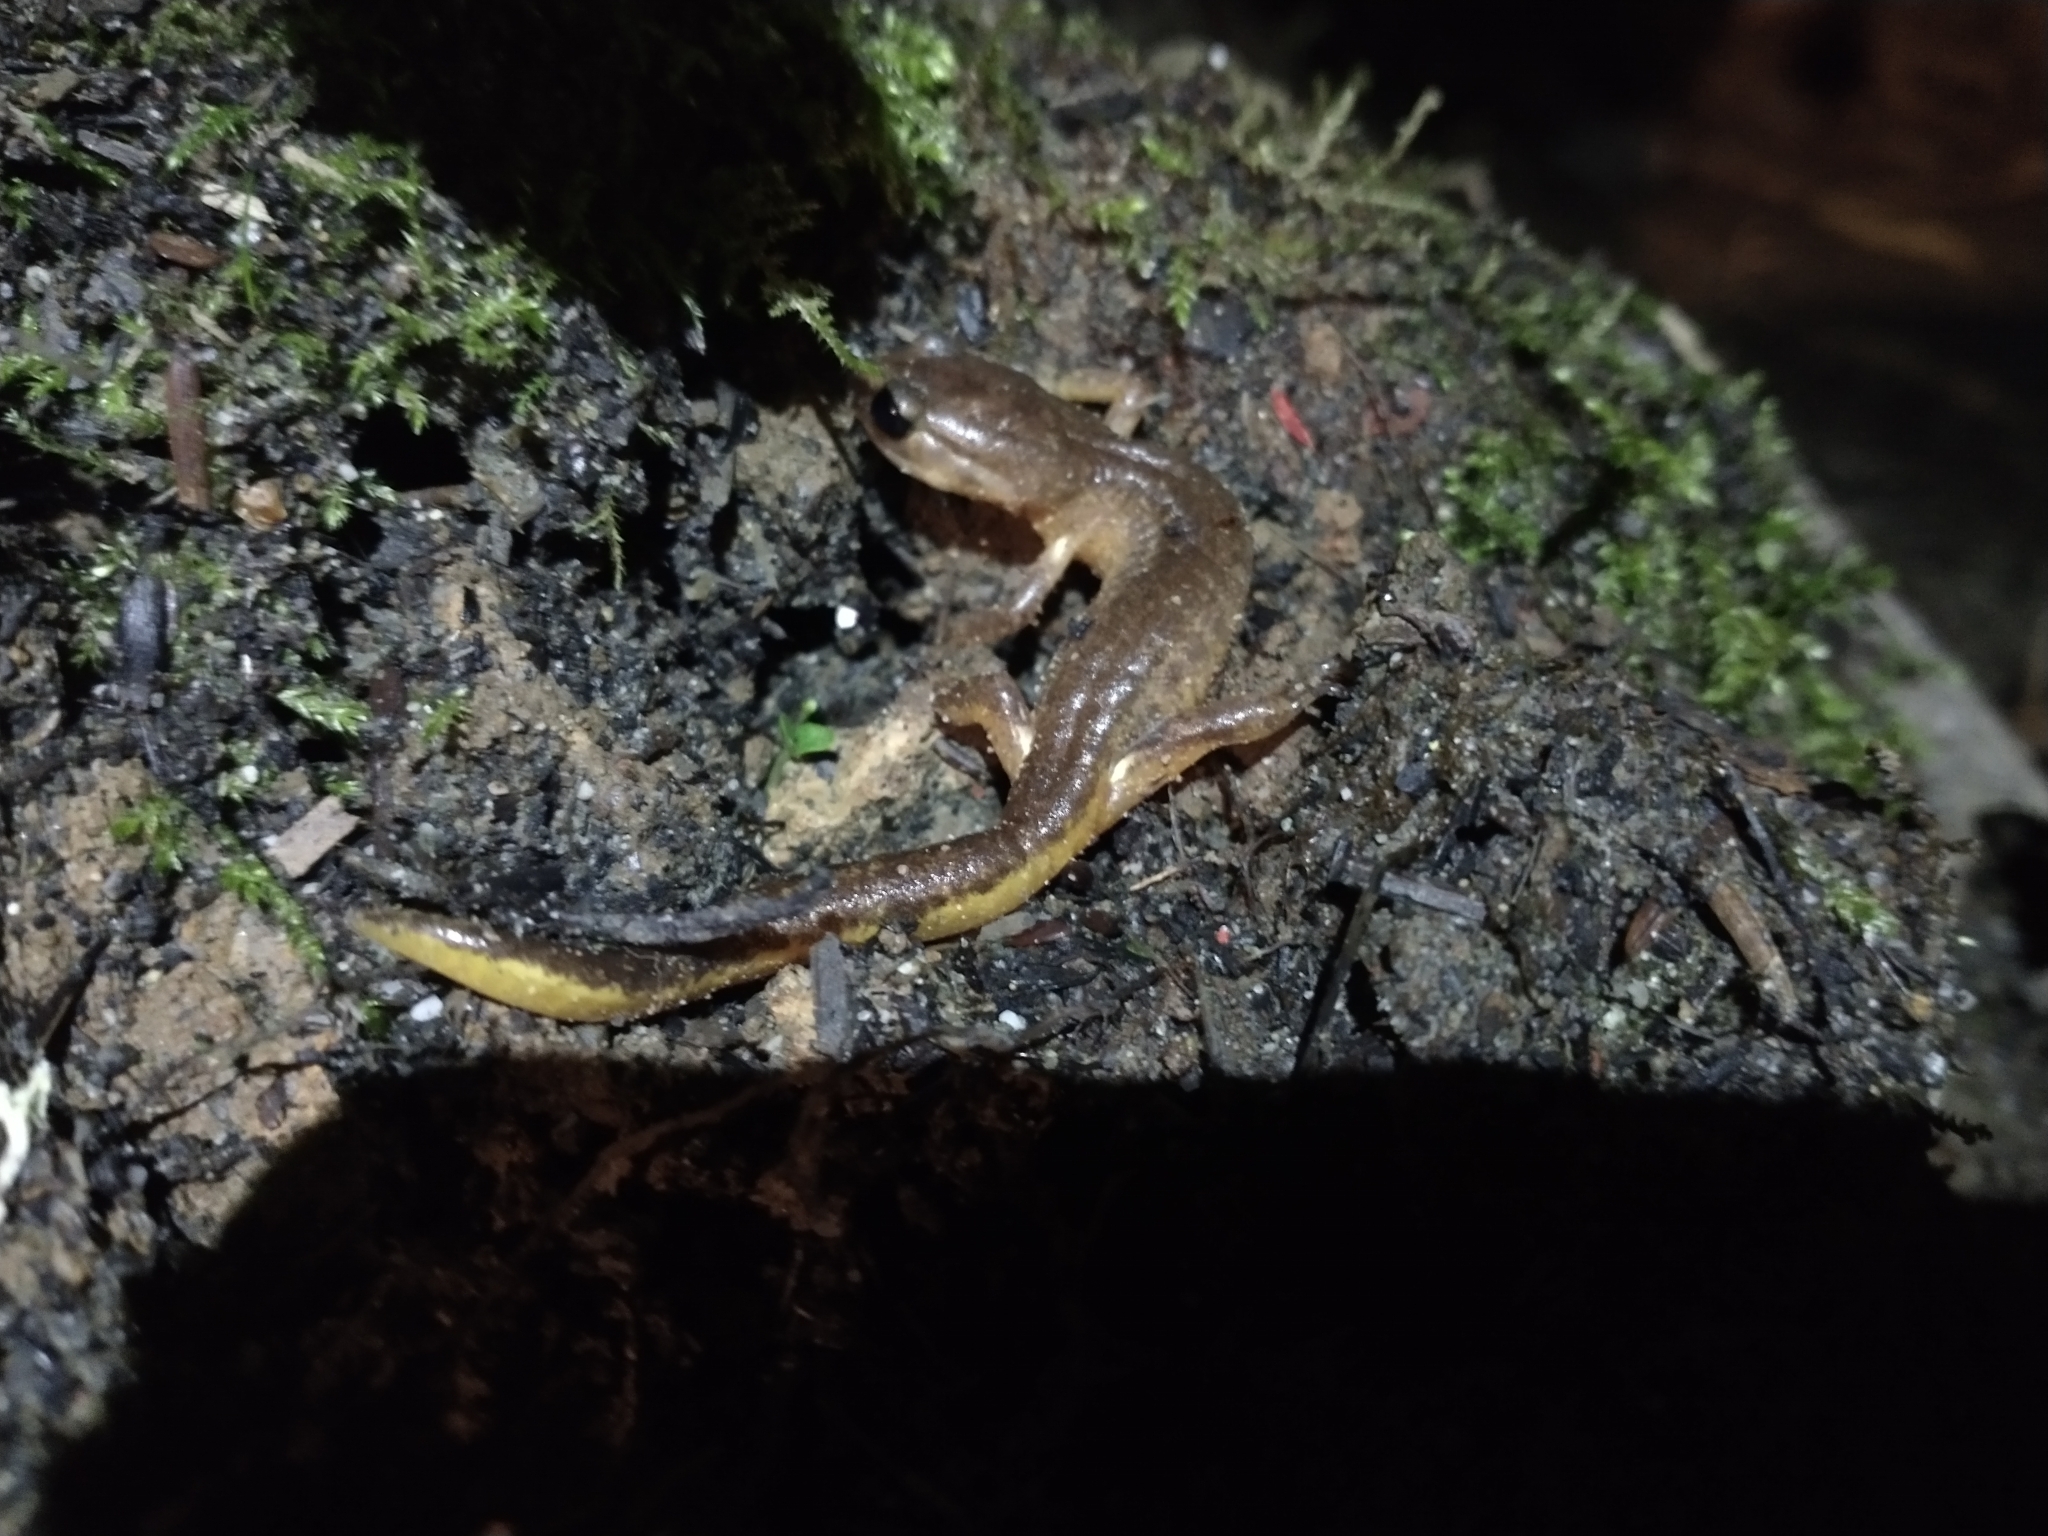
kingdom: Animalia
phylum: Chordata
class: Amphibia
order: Caudata
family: Plethodontidae
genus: Ensatina
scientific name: Ensatina eschscholtzii
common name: Ensatina
